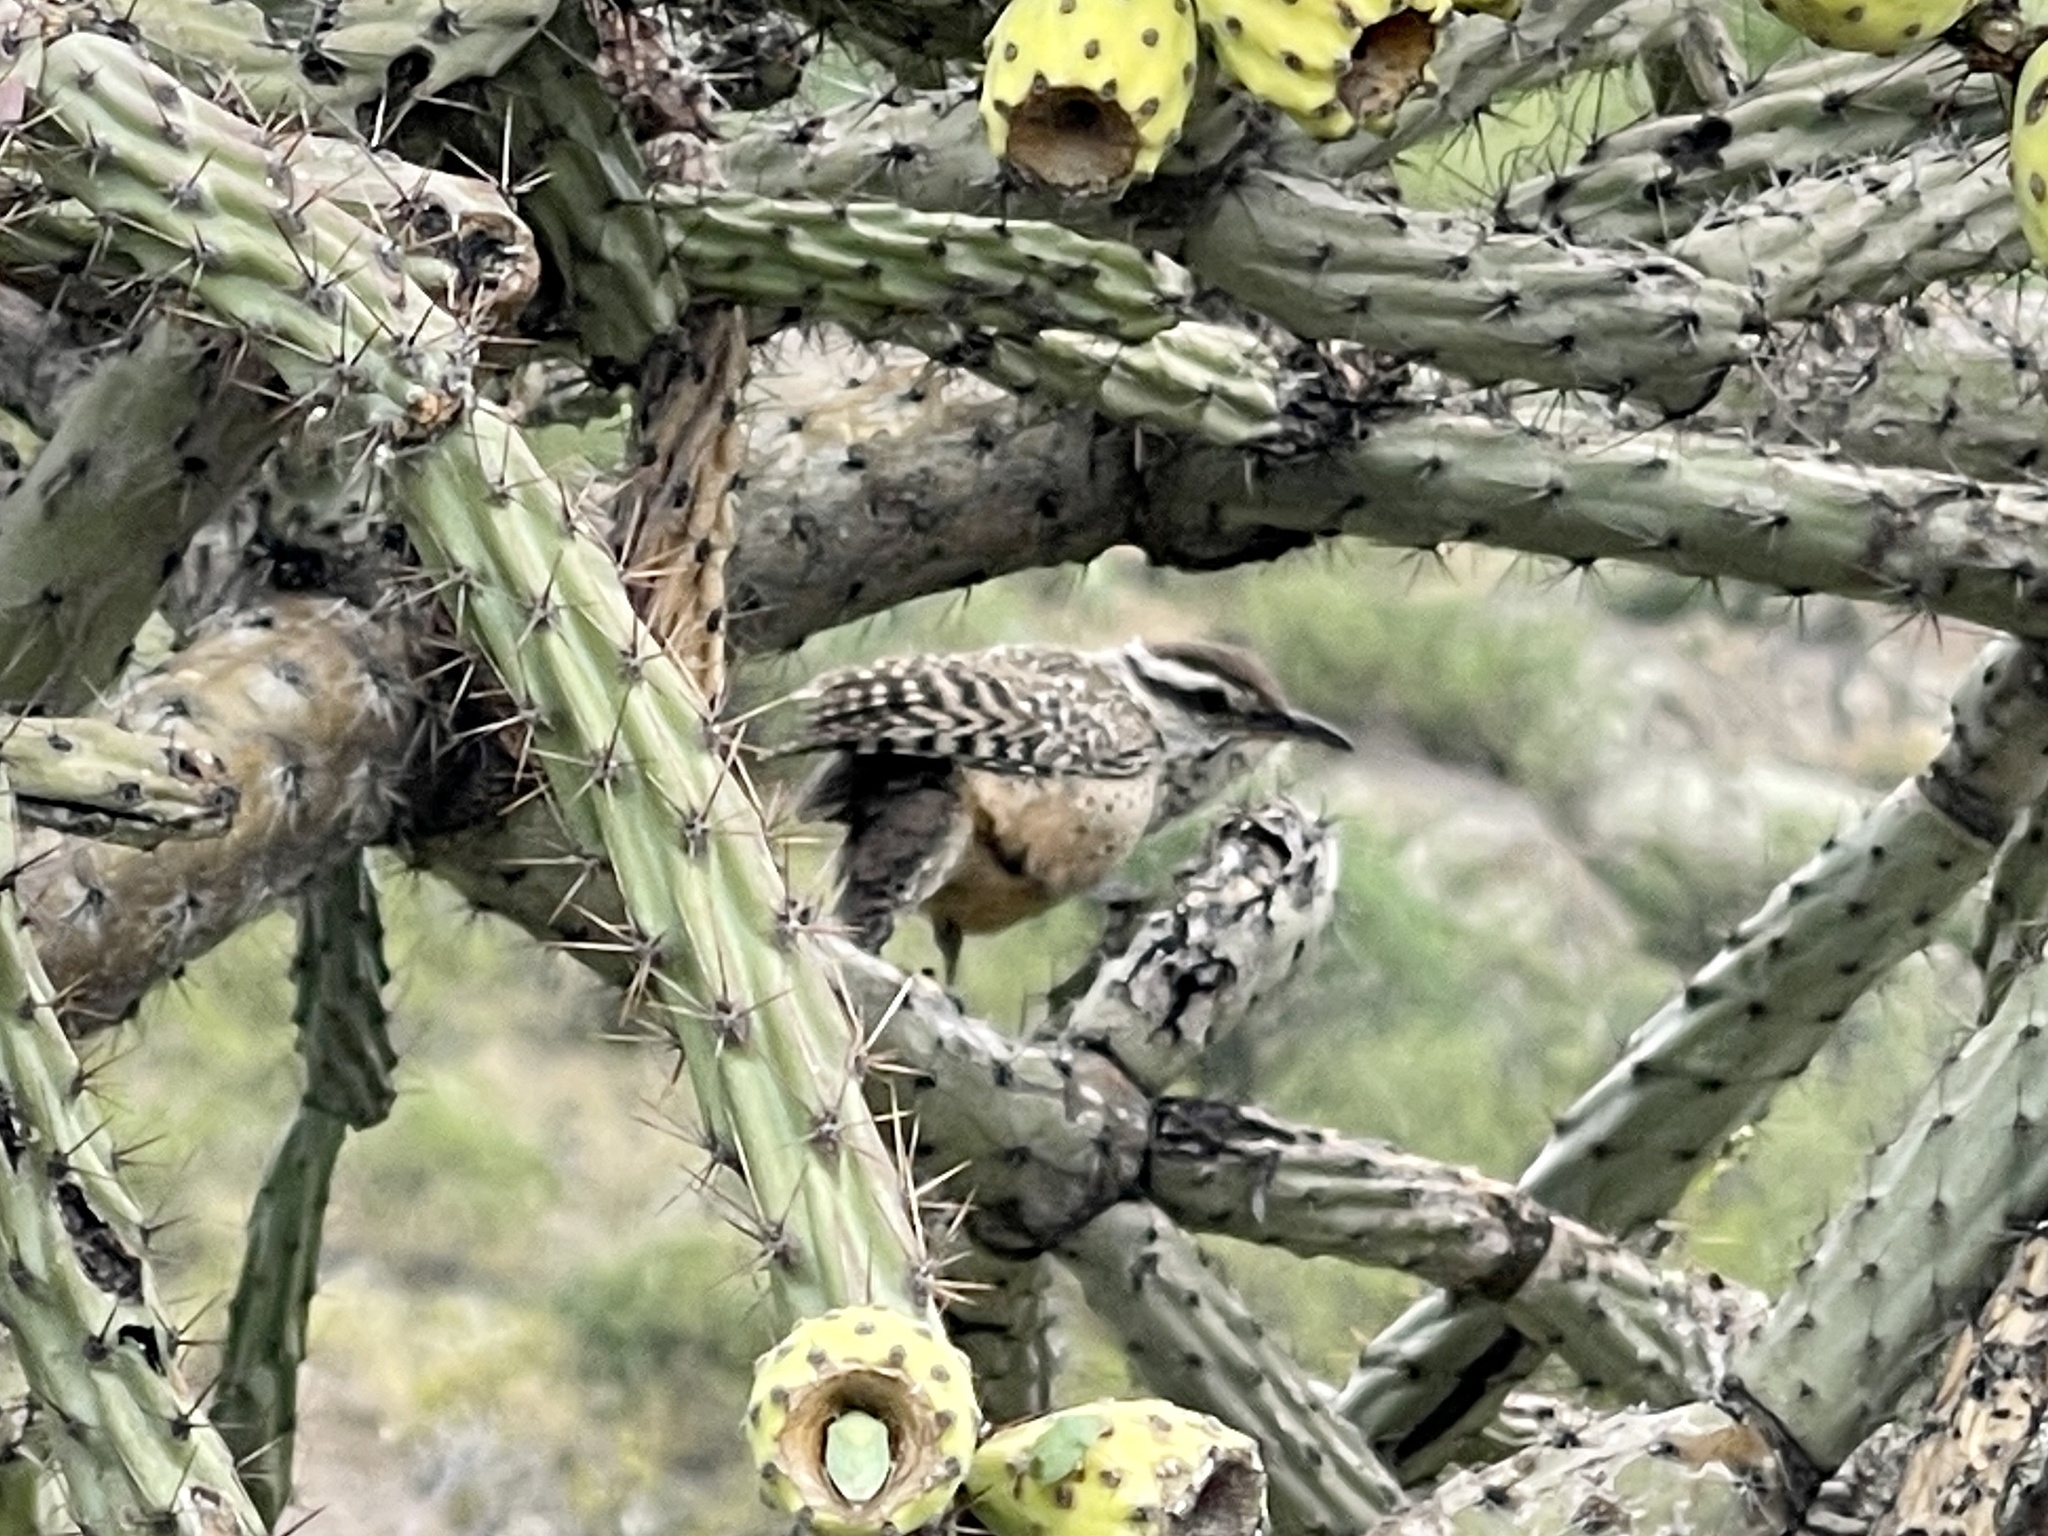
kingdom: Animalia
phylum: Chordata
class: Aves
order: Passeriformes
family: Troglodytidae
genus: Campylorhynchus
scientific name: Campylorhynchus brunneicapillus
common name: Cactus wren
